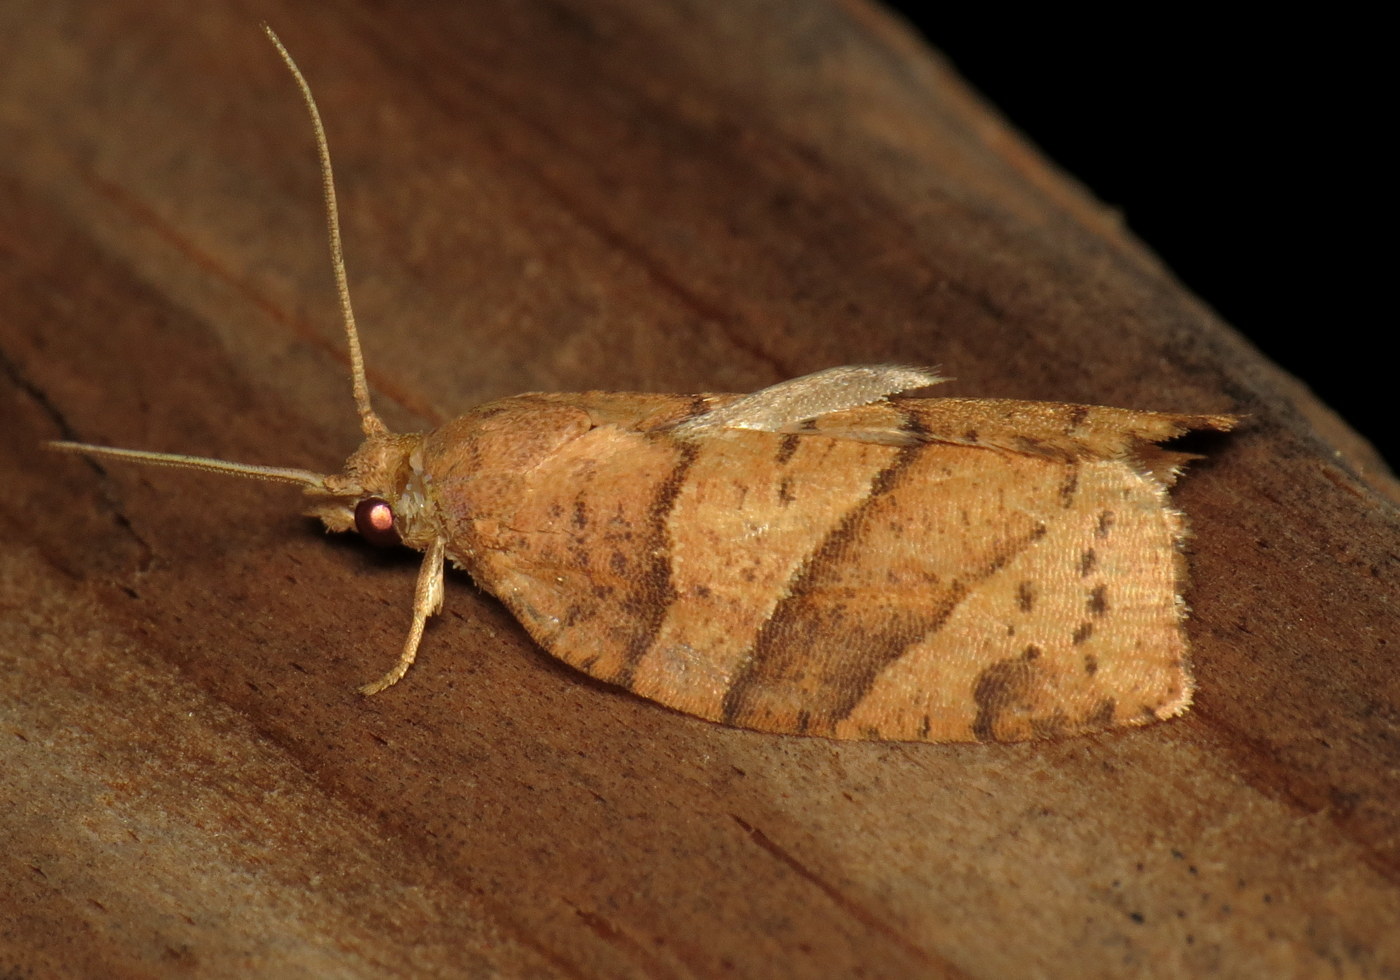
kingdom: Animalia
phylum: Arthropoda
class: Insecta
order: Lepidoptera
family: Tortricidae
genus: Pandemis
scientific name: Pandemis lamprosana
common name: Woodgrain leafroller moth
